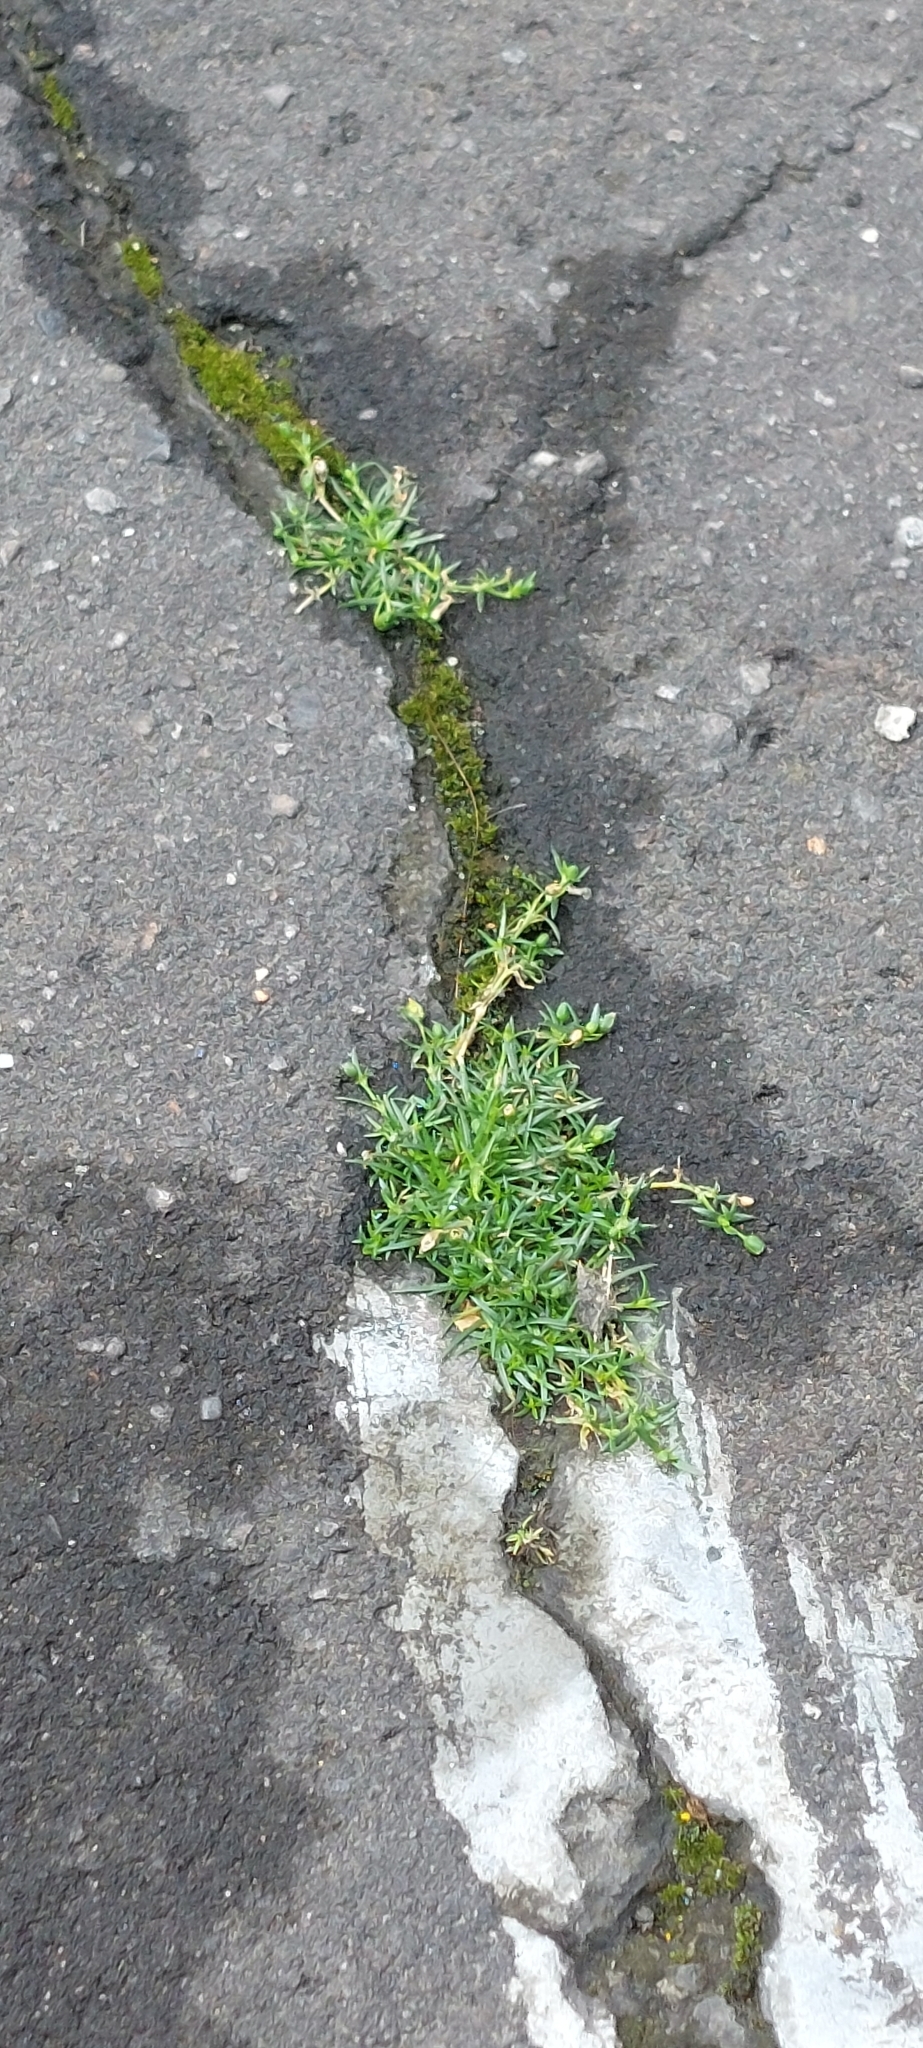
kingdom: Plantae
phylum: Tracheophyta
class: Magnoliopsida
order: Caryophyllales
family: Caryophyllaceae
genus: Sagina
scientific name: Sagina procumbens
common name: Procumbent pearlwort
